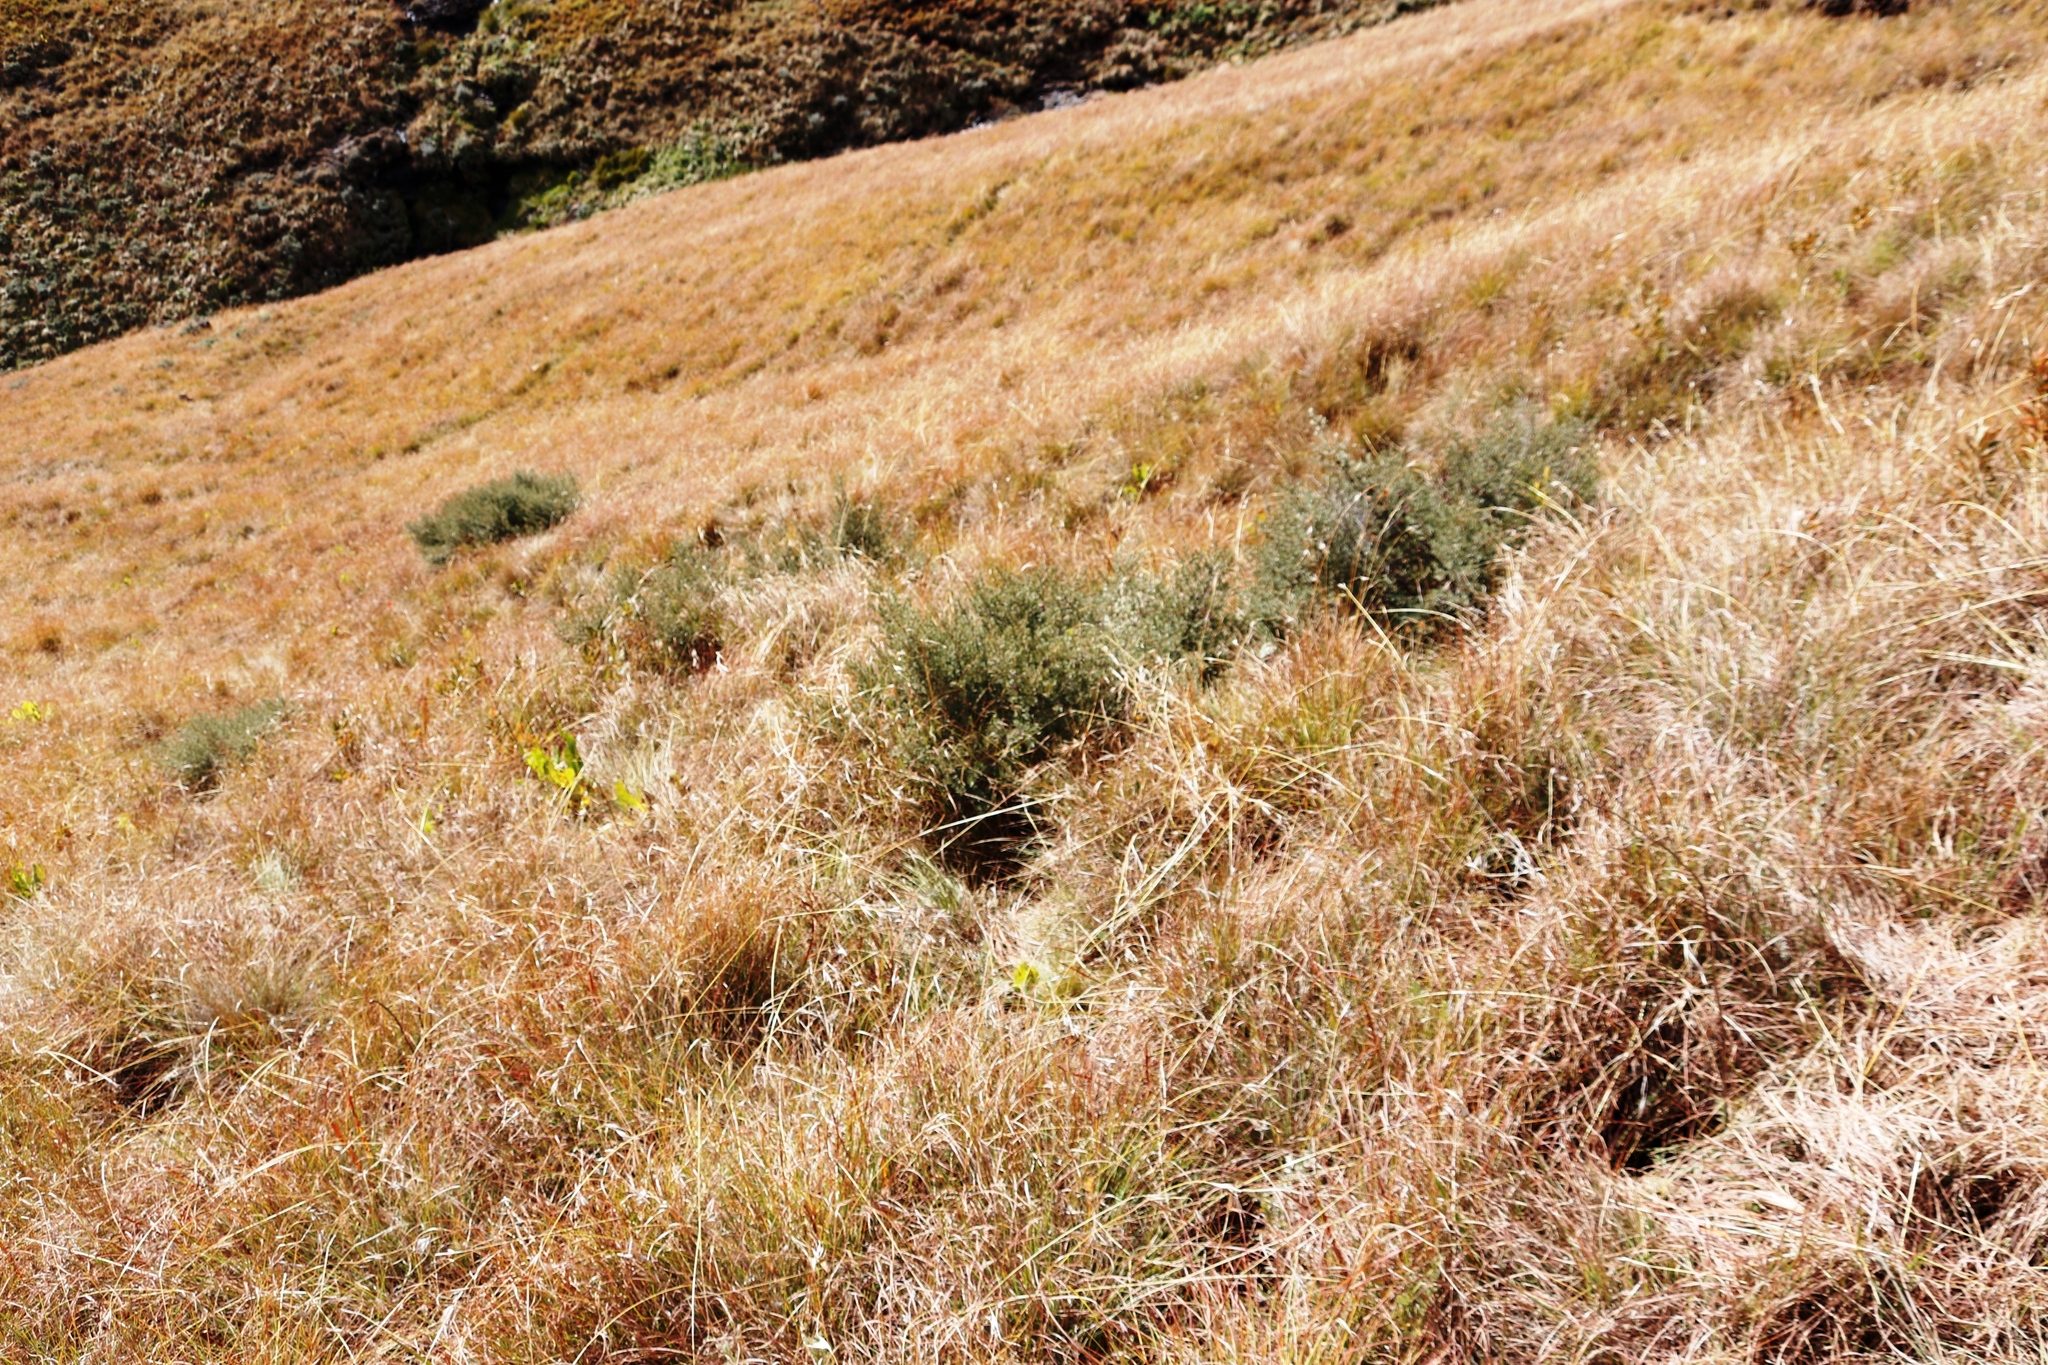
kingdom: Plantae
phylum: Tracheophyta
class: Liliopsida
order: Poales
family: Poaceae
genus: Themeda
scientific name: Themeda triandra
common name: Kangaroo grass
